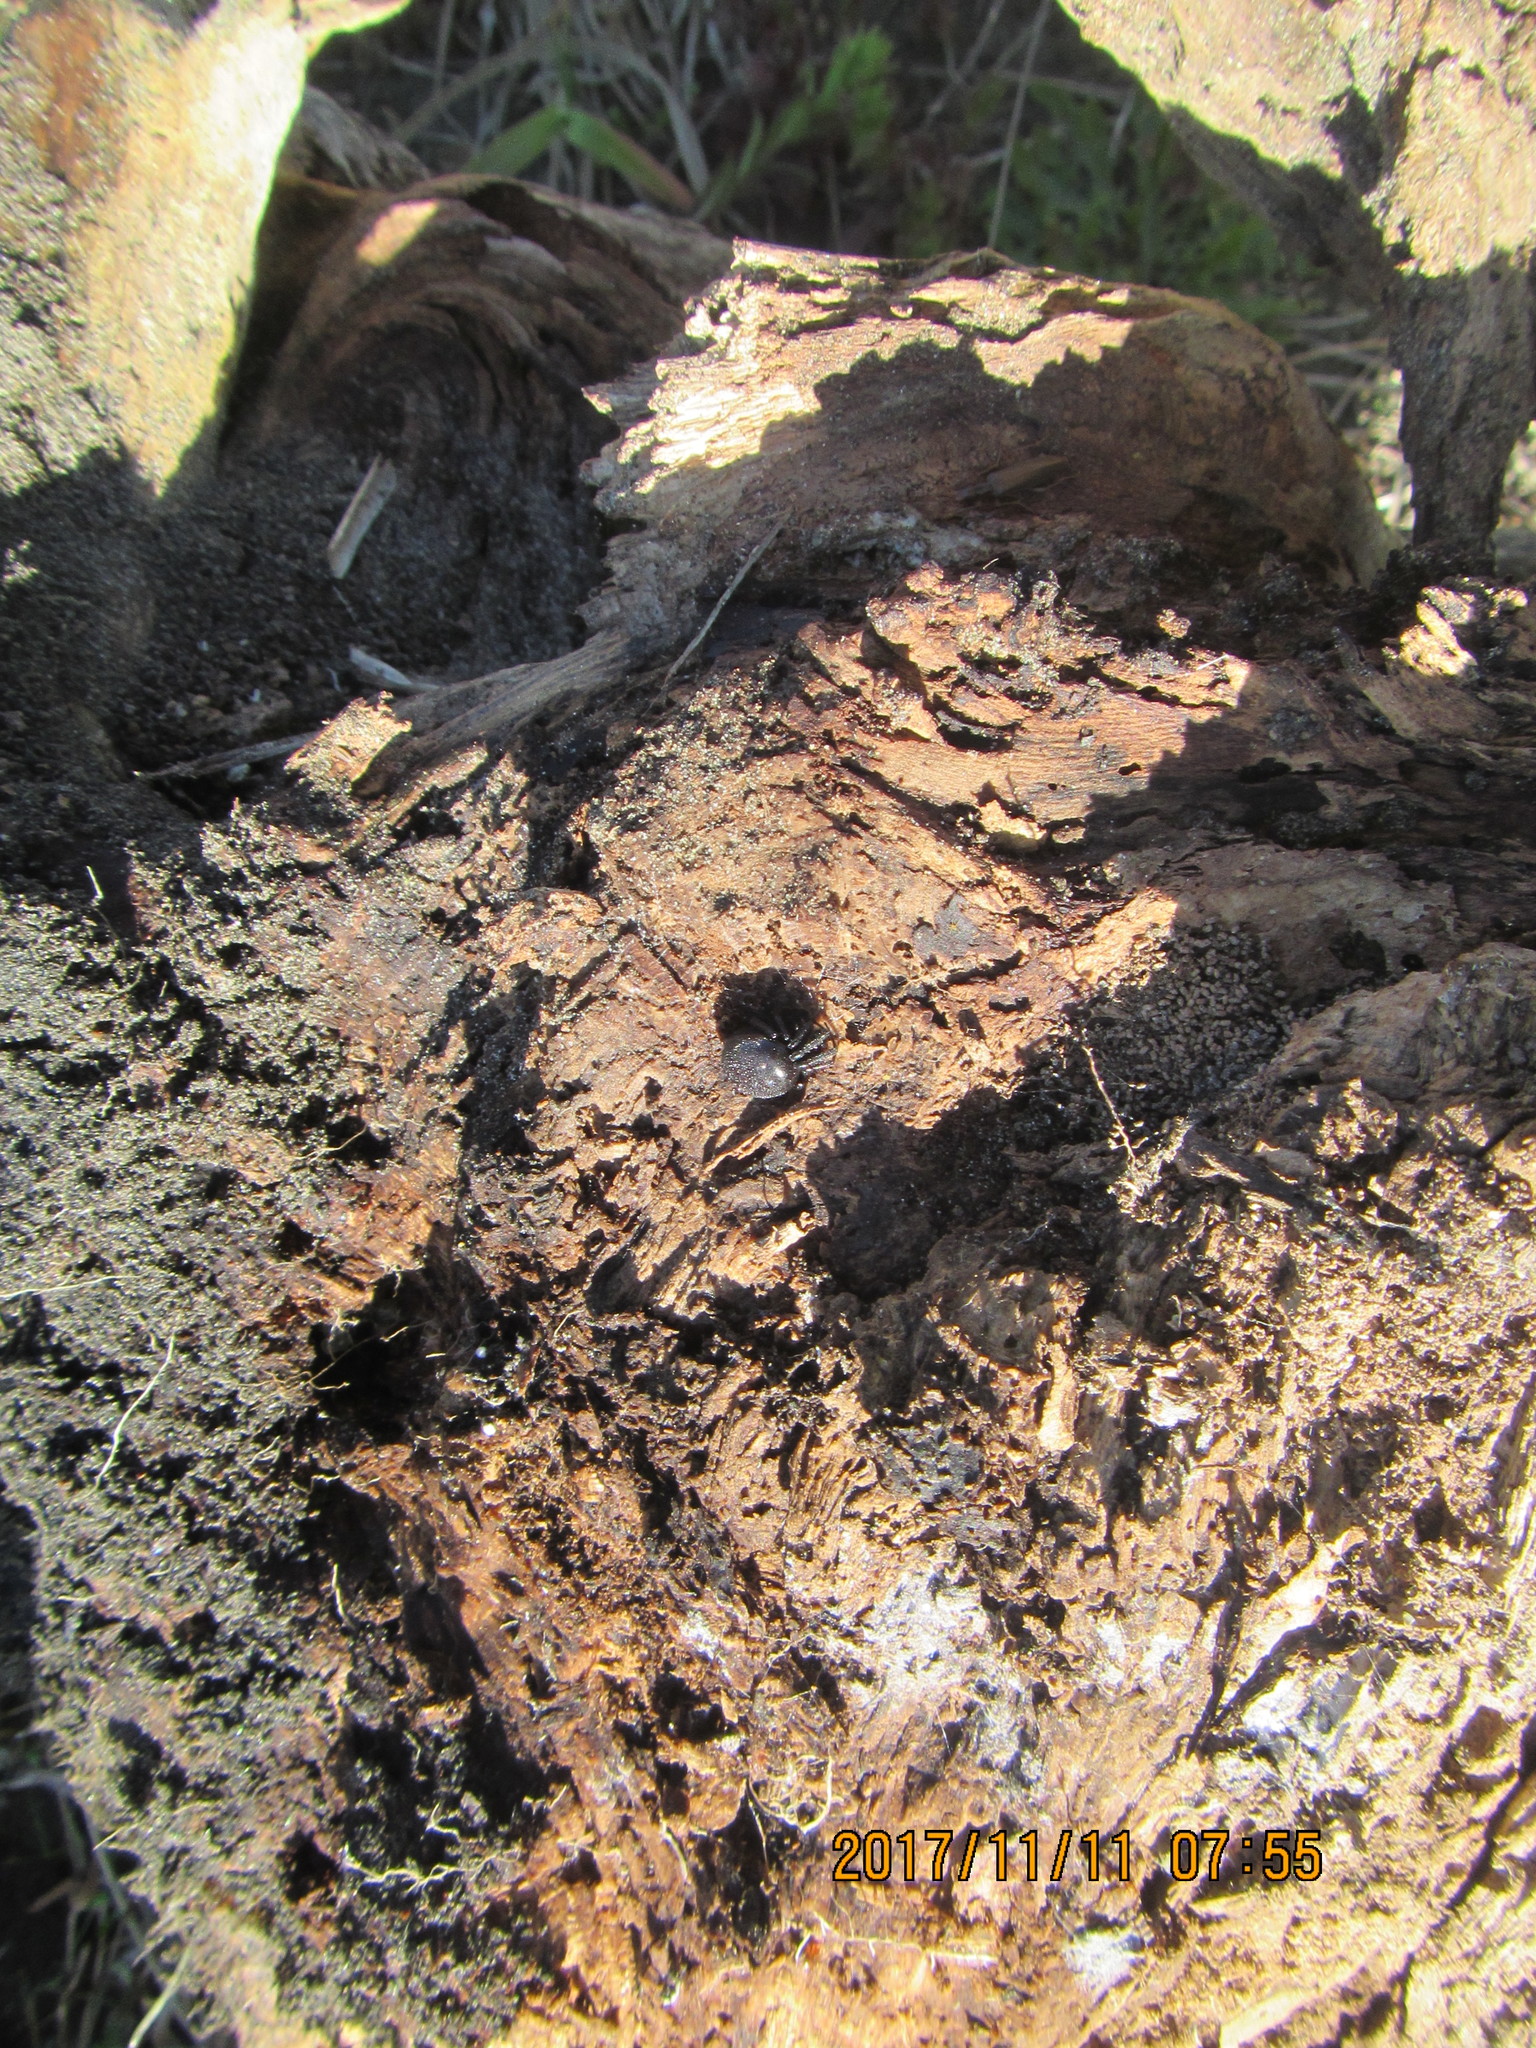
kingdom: Animalia
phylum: Arthropoda
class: Arachnida
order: Araneae
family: Theridiidae
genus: Steatoda
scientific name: Steatoda capensis
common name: Cobweb weaver
